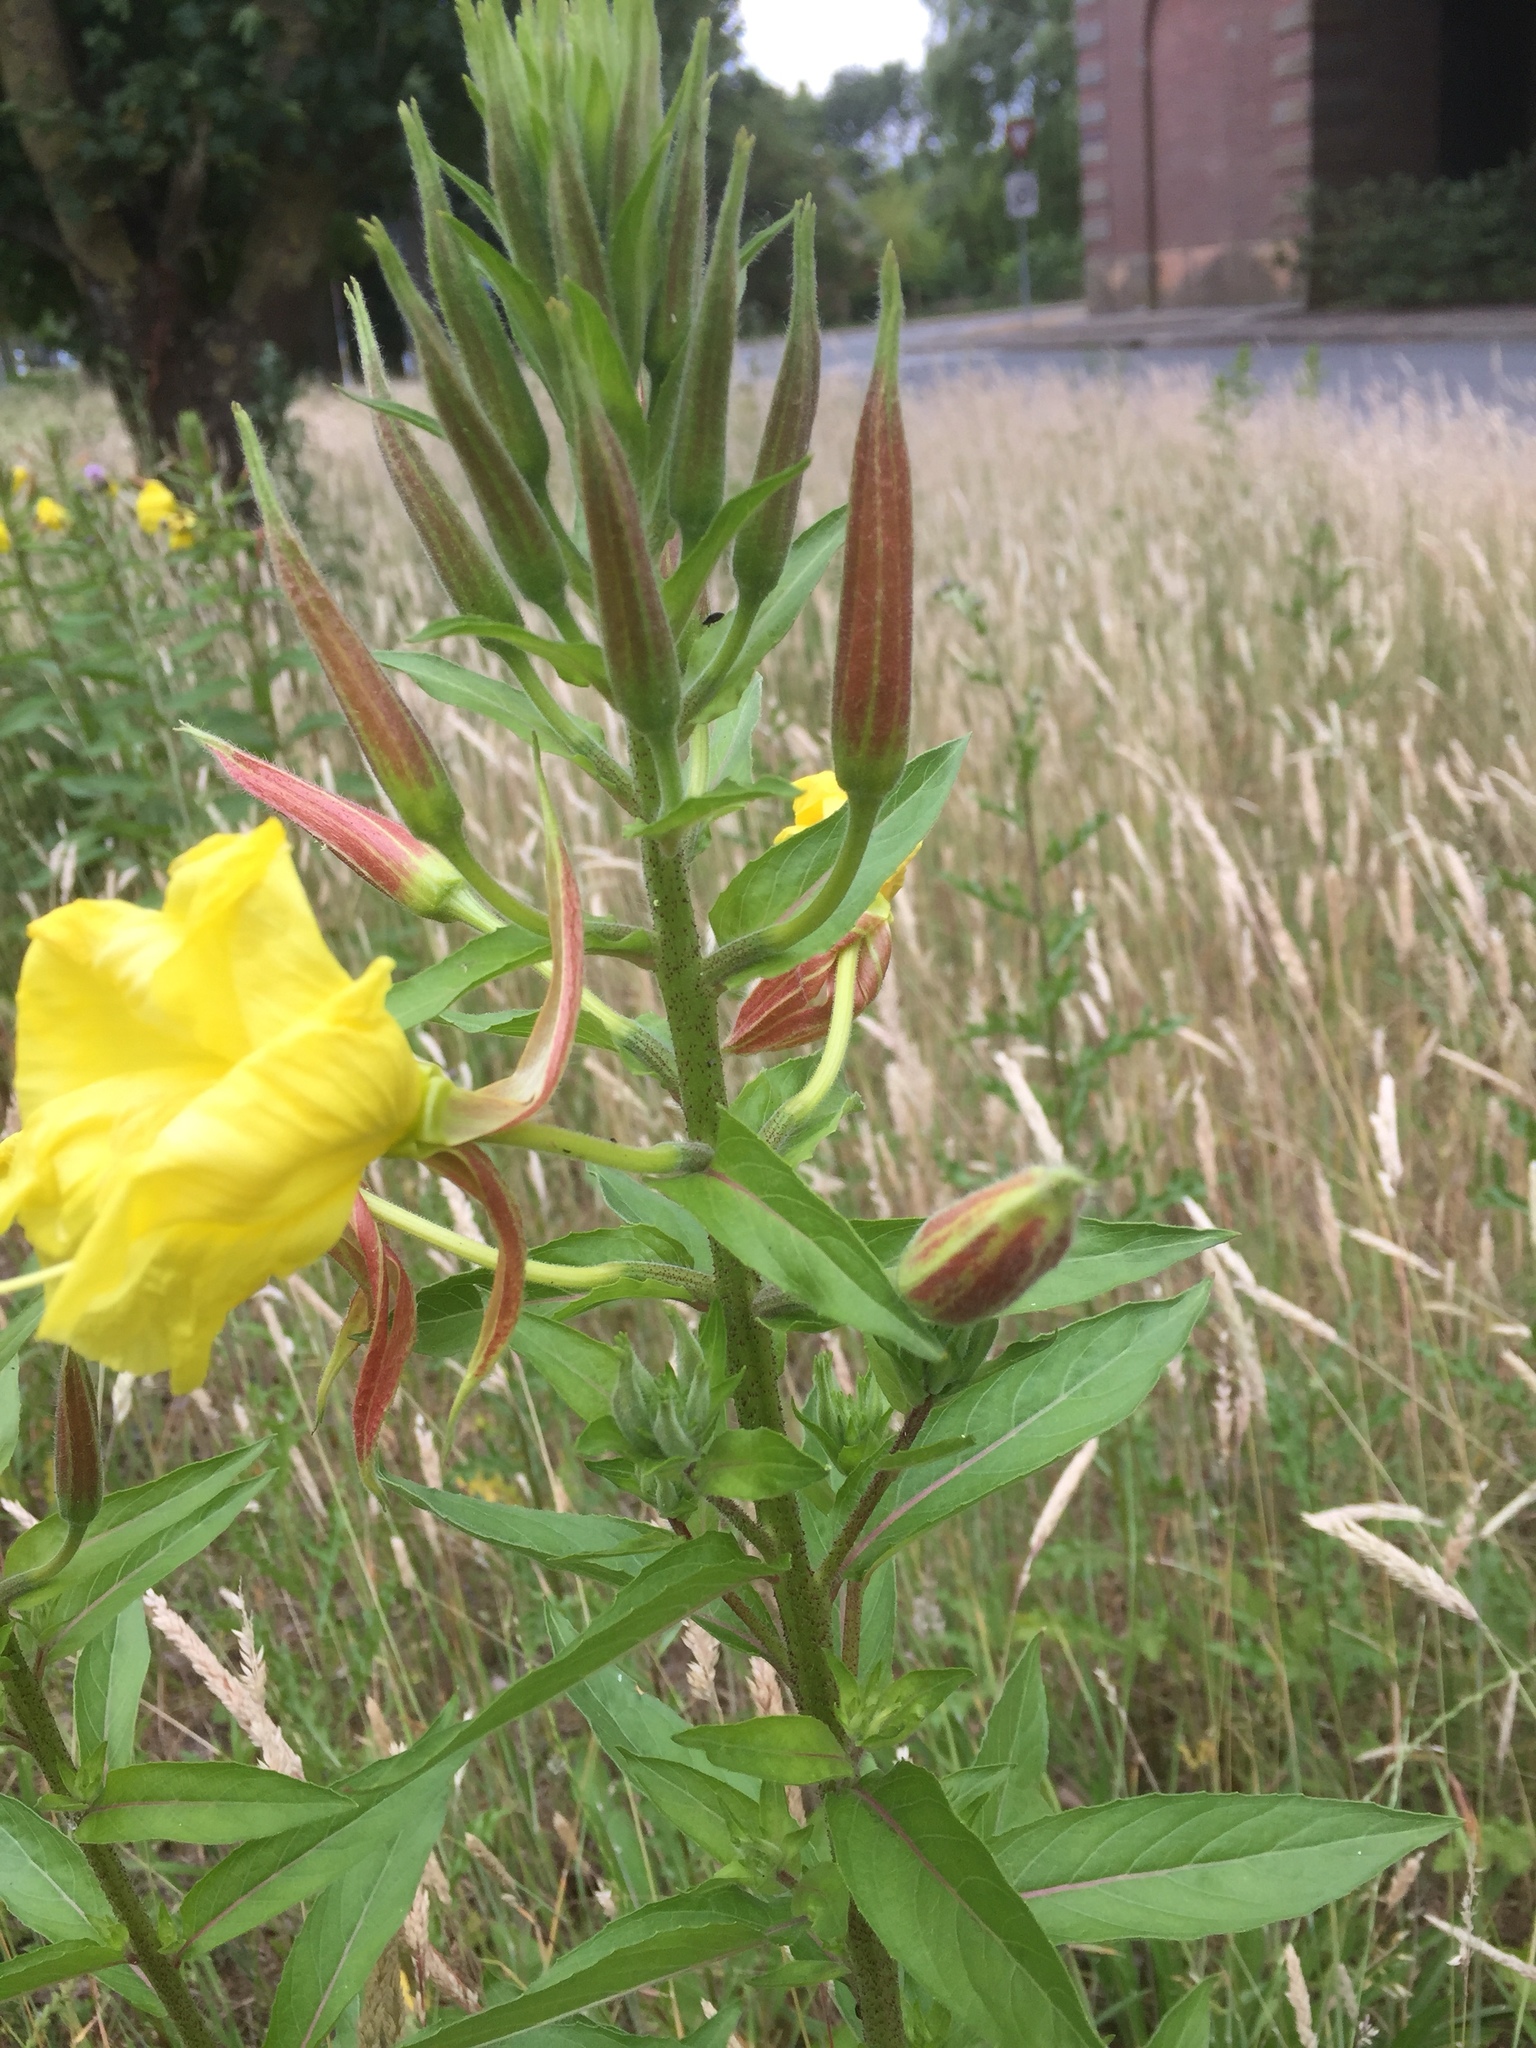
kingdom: Plantae
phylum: Tracheophyta
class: Magnoliopsida
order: Myrtales
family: Onagraceae
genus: Oenothera
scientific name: Oenothera glazioviana
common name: Large-flowered evening-primrose
